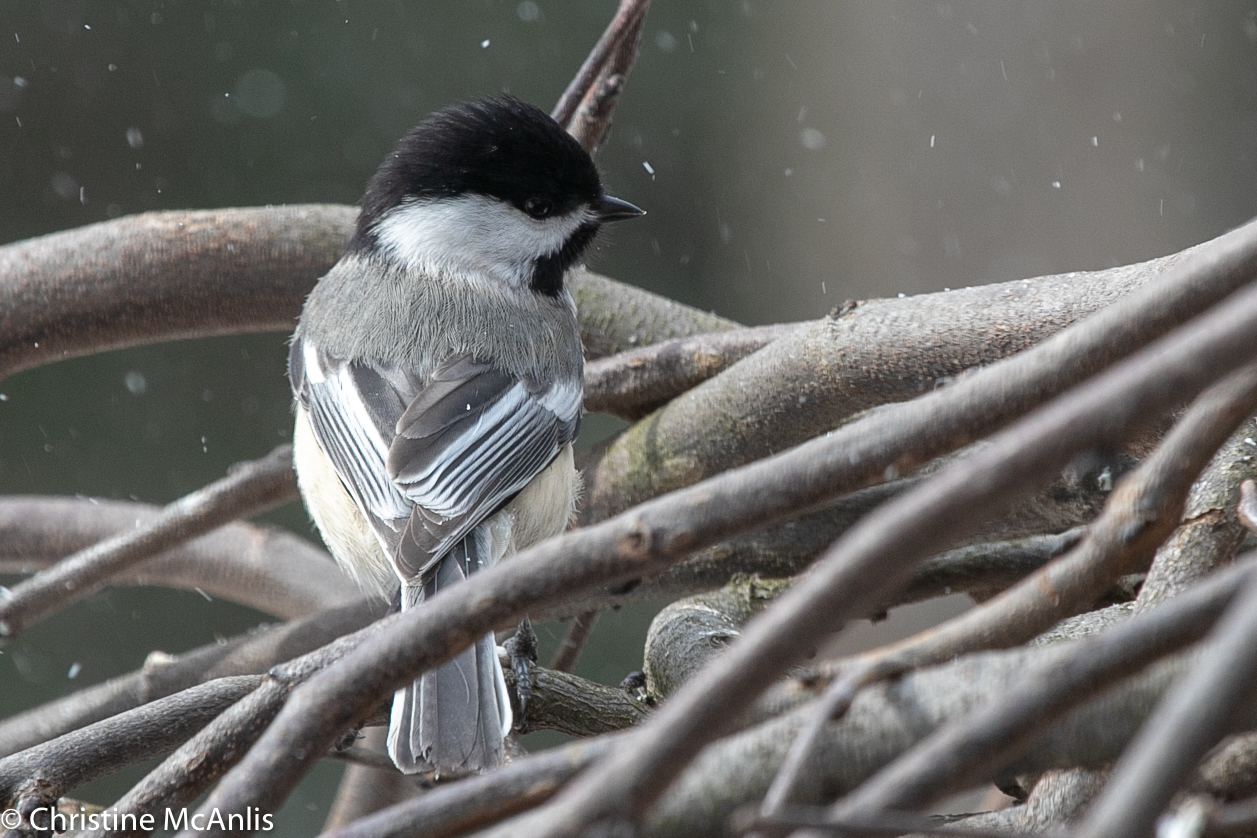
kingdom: Animalia
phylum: Chordata
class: Aves
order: Passeriformes
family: Paridae
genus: Poecile
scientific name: Poecile atricapillus
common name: Black-capped chickadee
